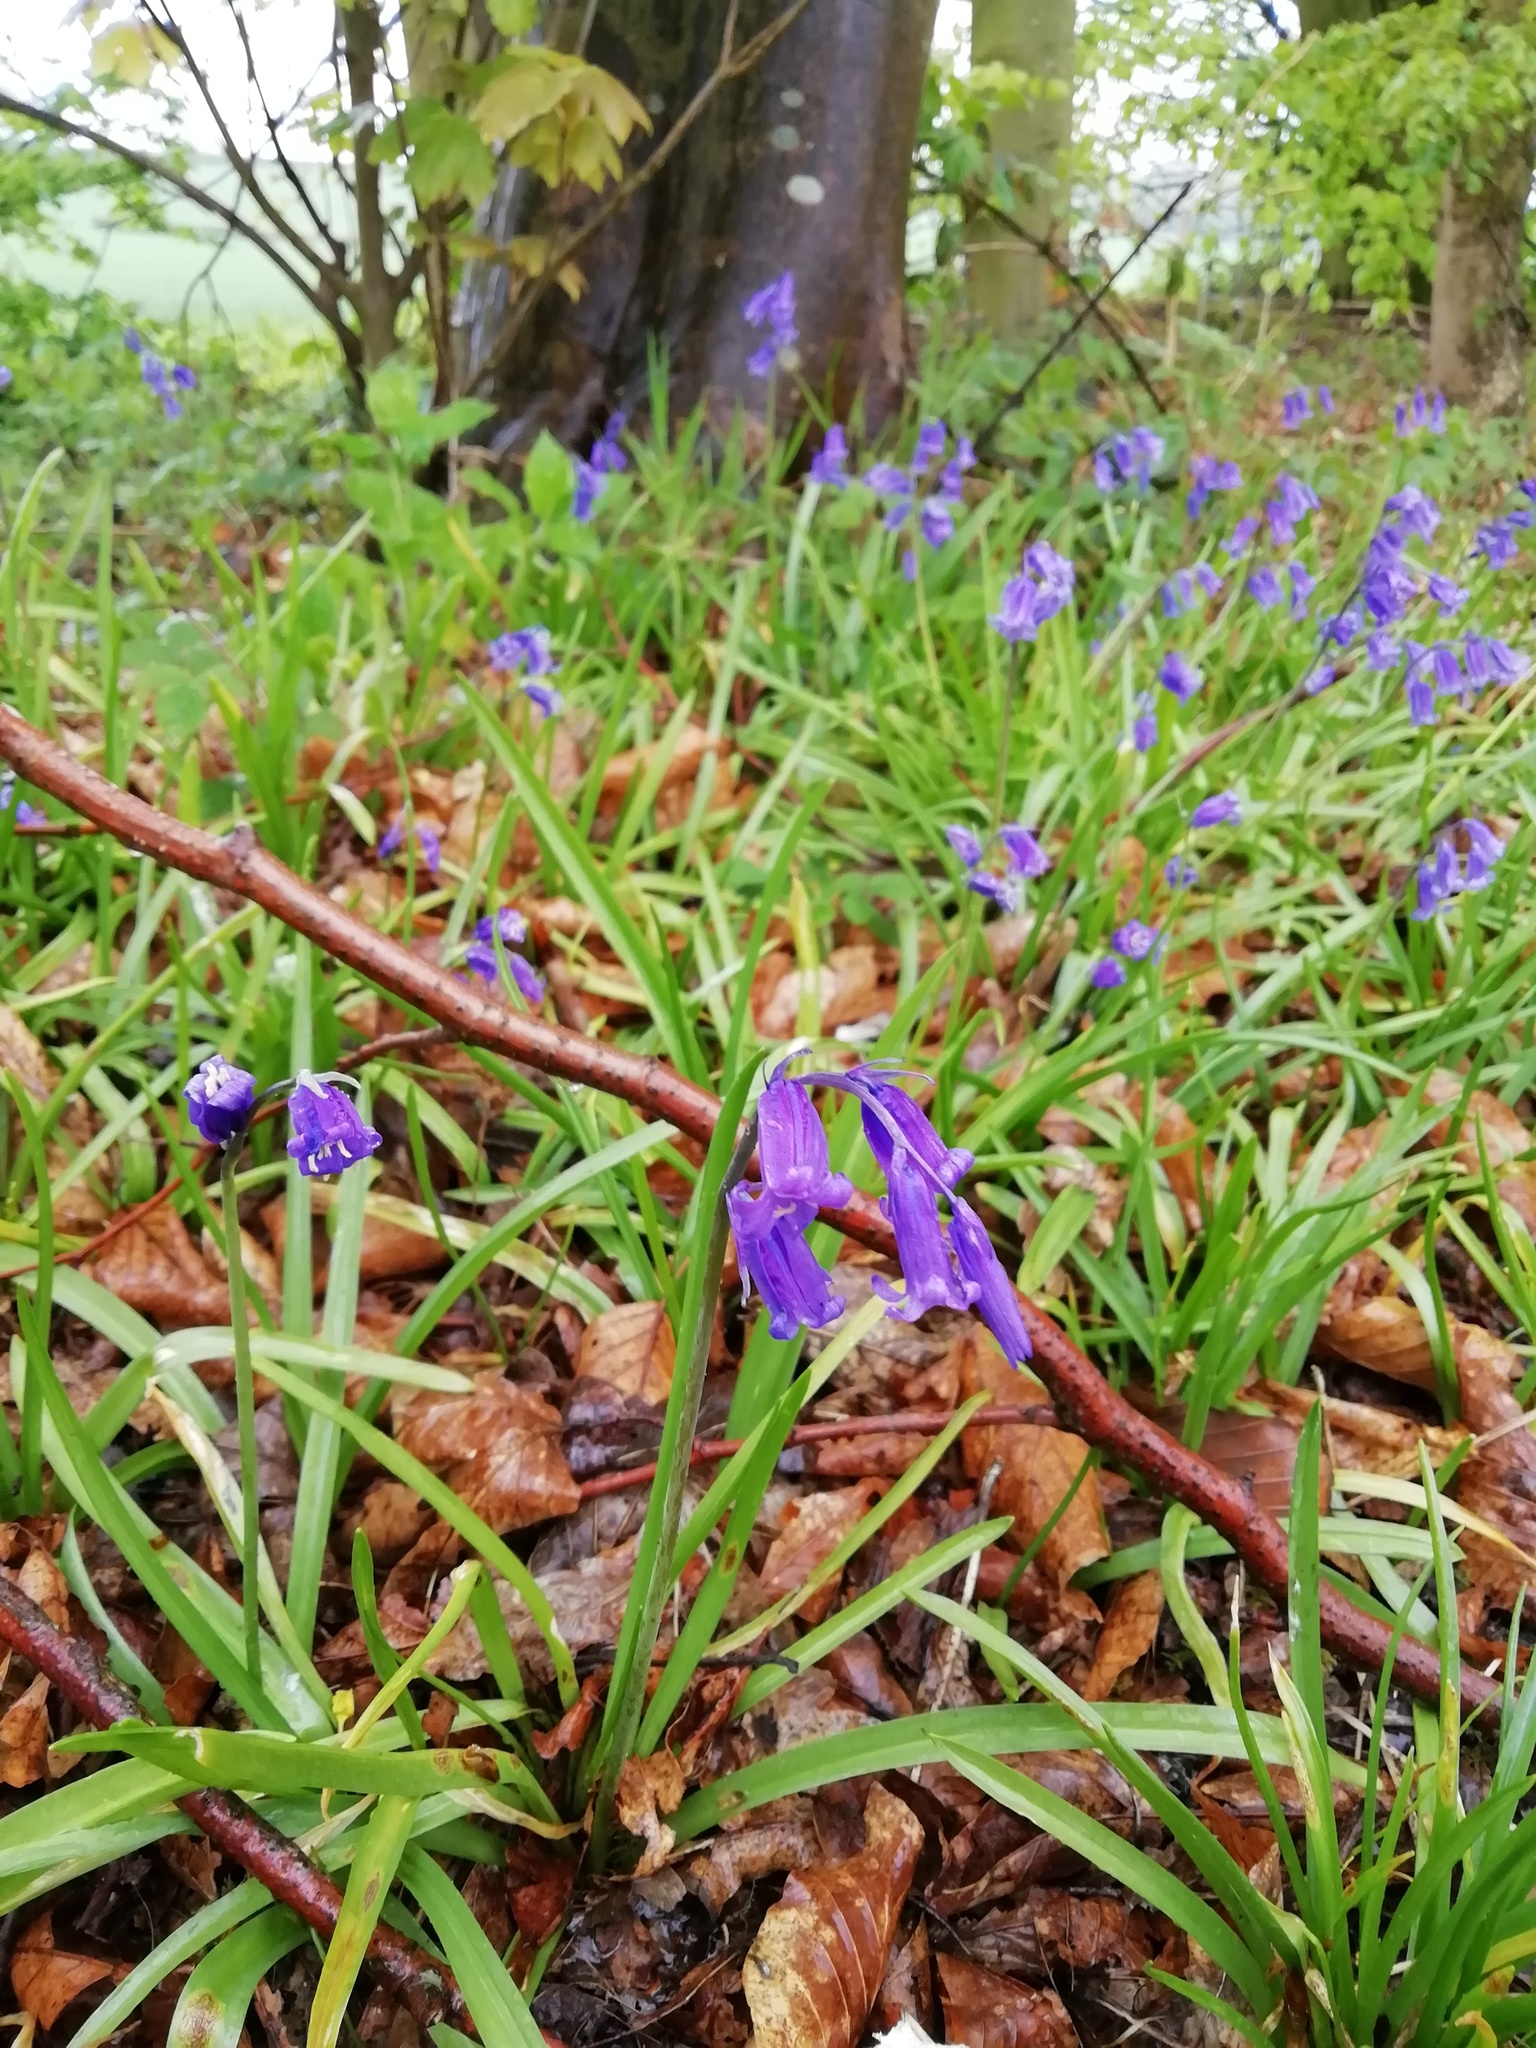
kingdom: Plantae
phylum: Tracheophyta
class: Liliopsida
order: Asparagales
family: Asparagaceae
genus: Hyacinthoides
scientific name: Hyacinthoides non-scripta
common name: Bluebell
